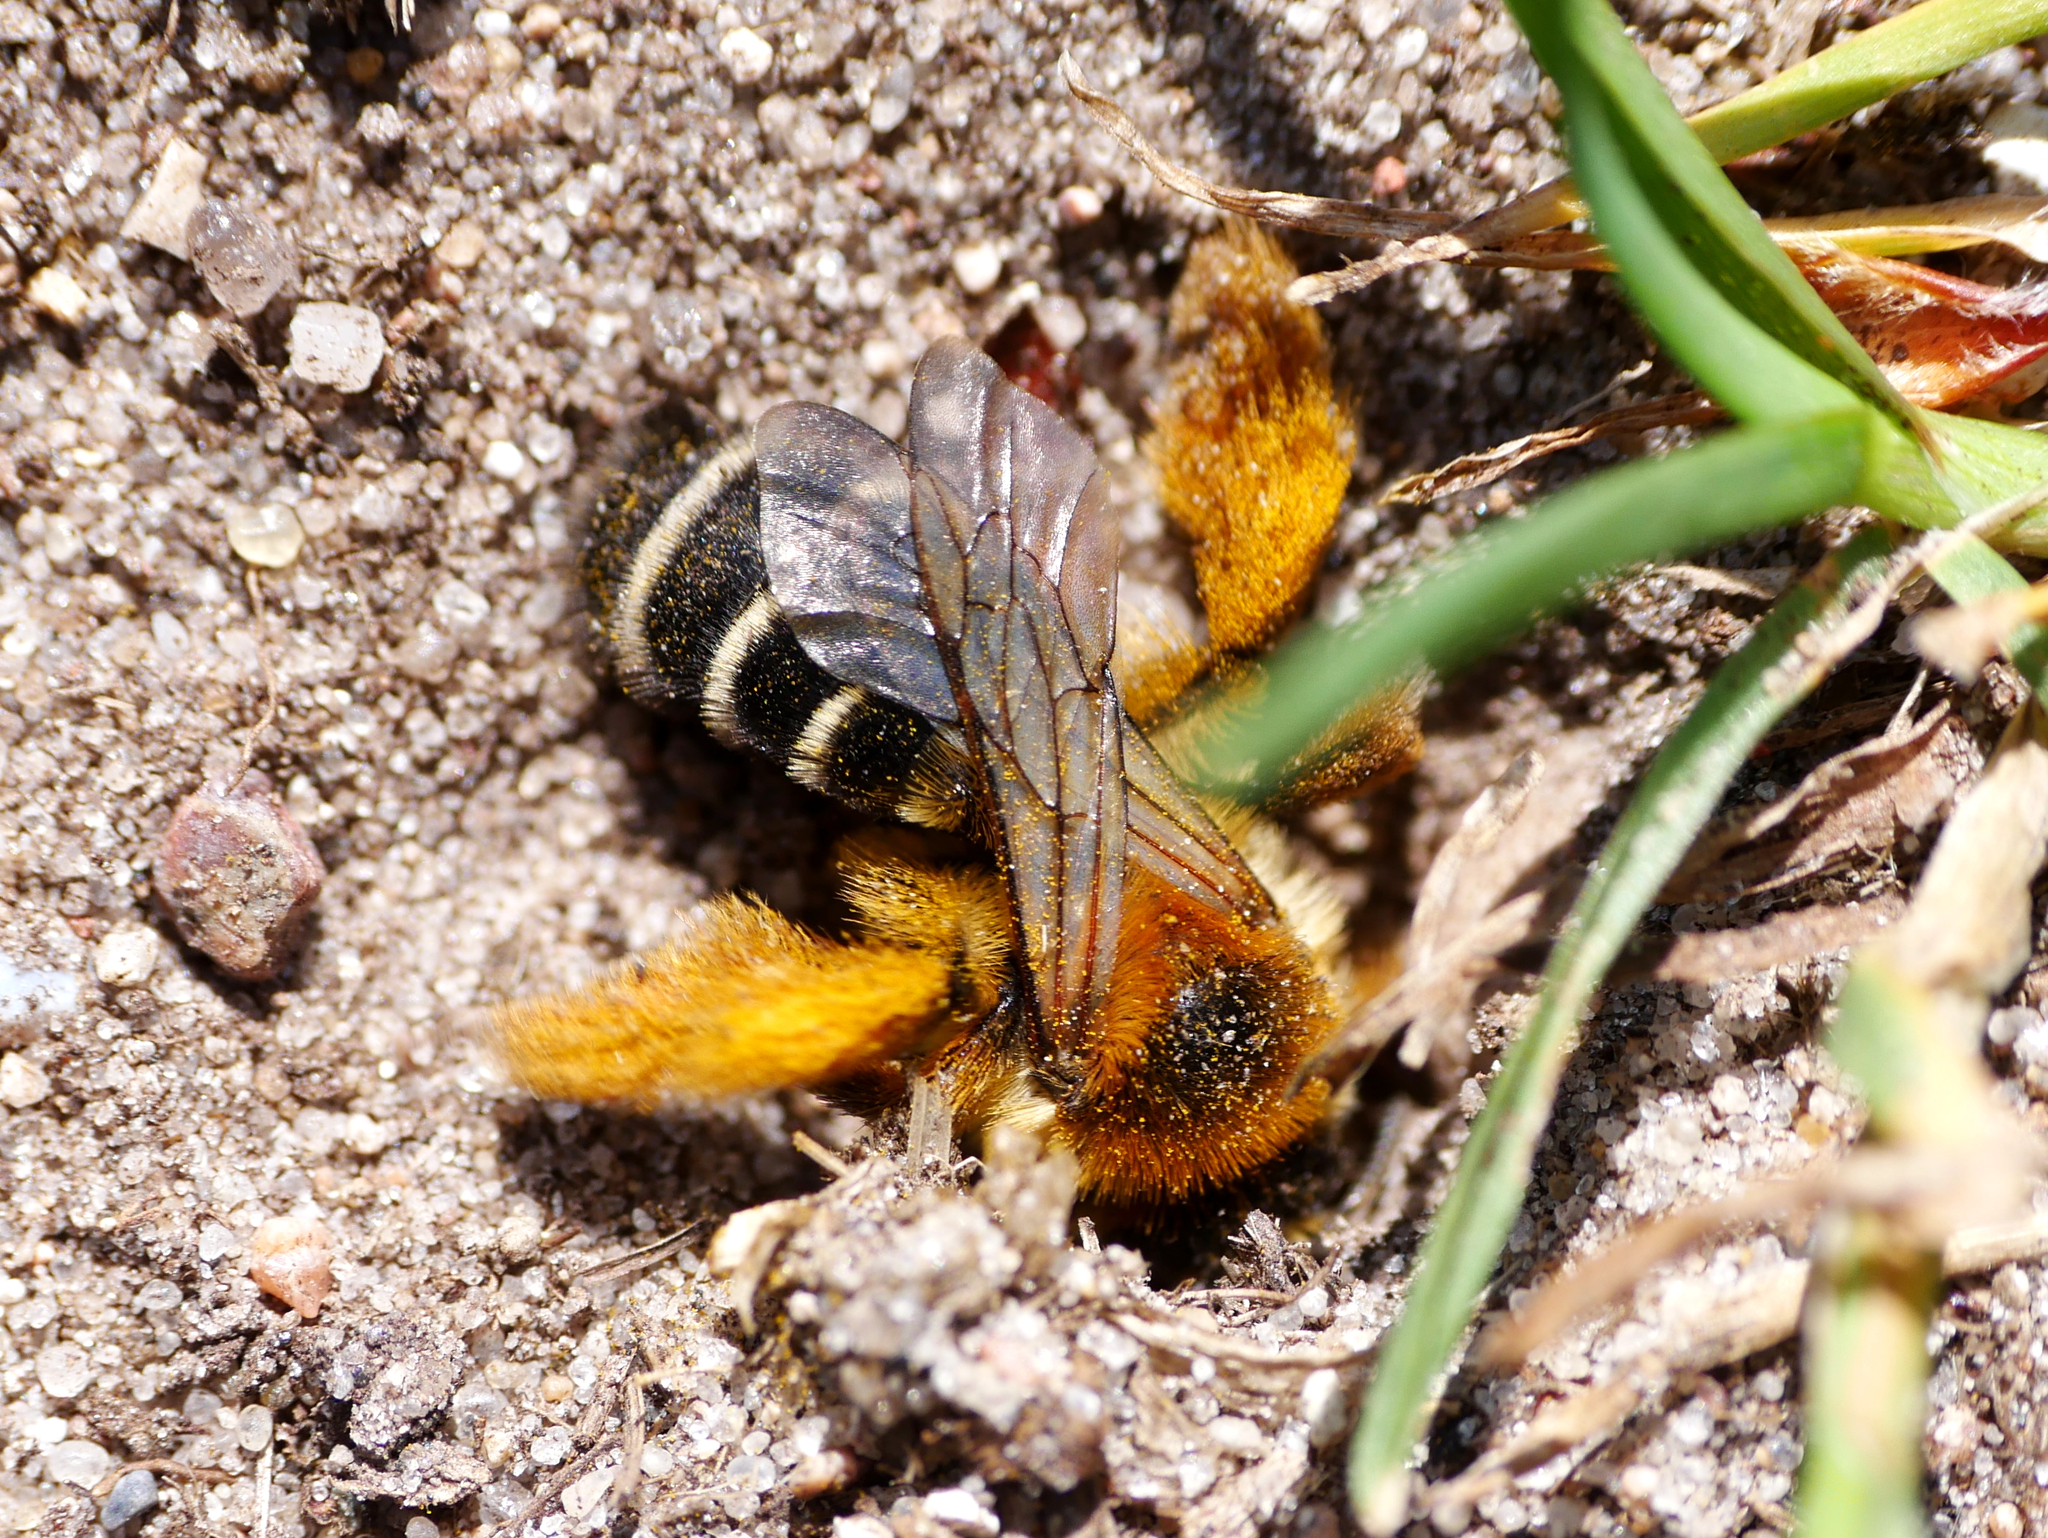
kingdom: Animalia
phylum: Arthropoda
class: Insecta
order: Hymenoptera
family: Melittidae
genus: Dasypoda
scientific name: Dasypoda hirtipes
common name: Pantaloon bee
